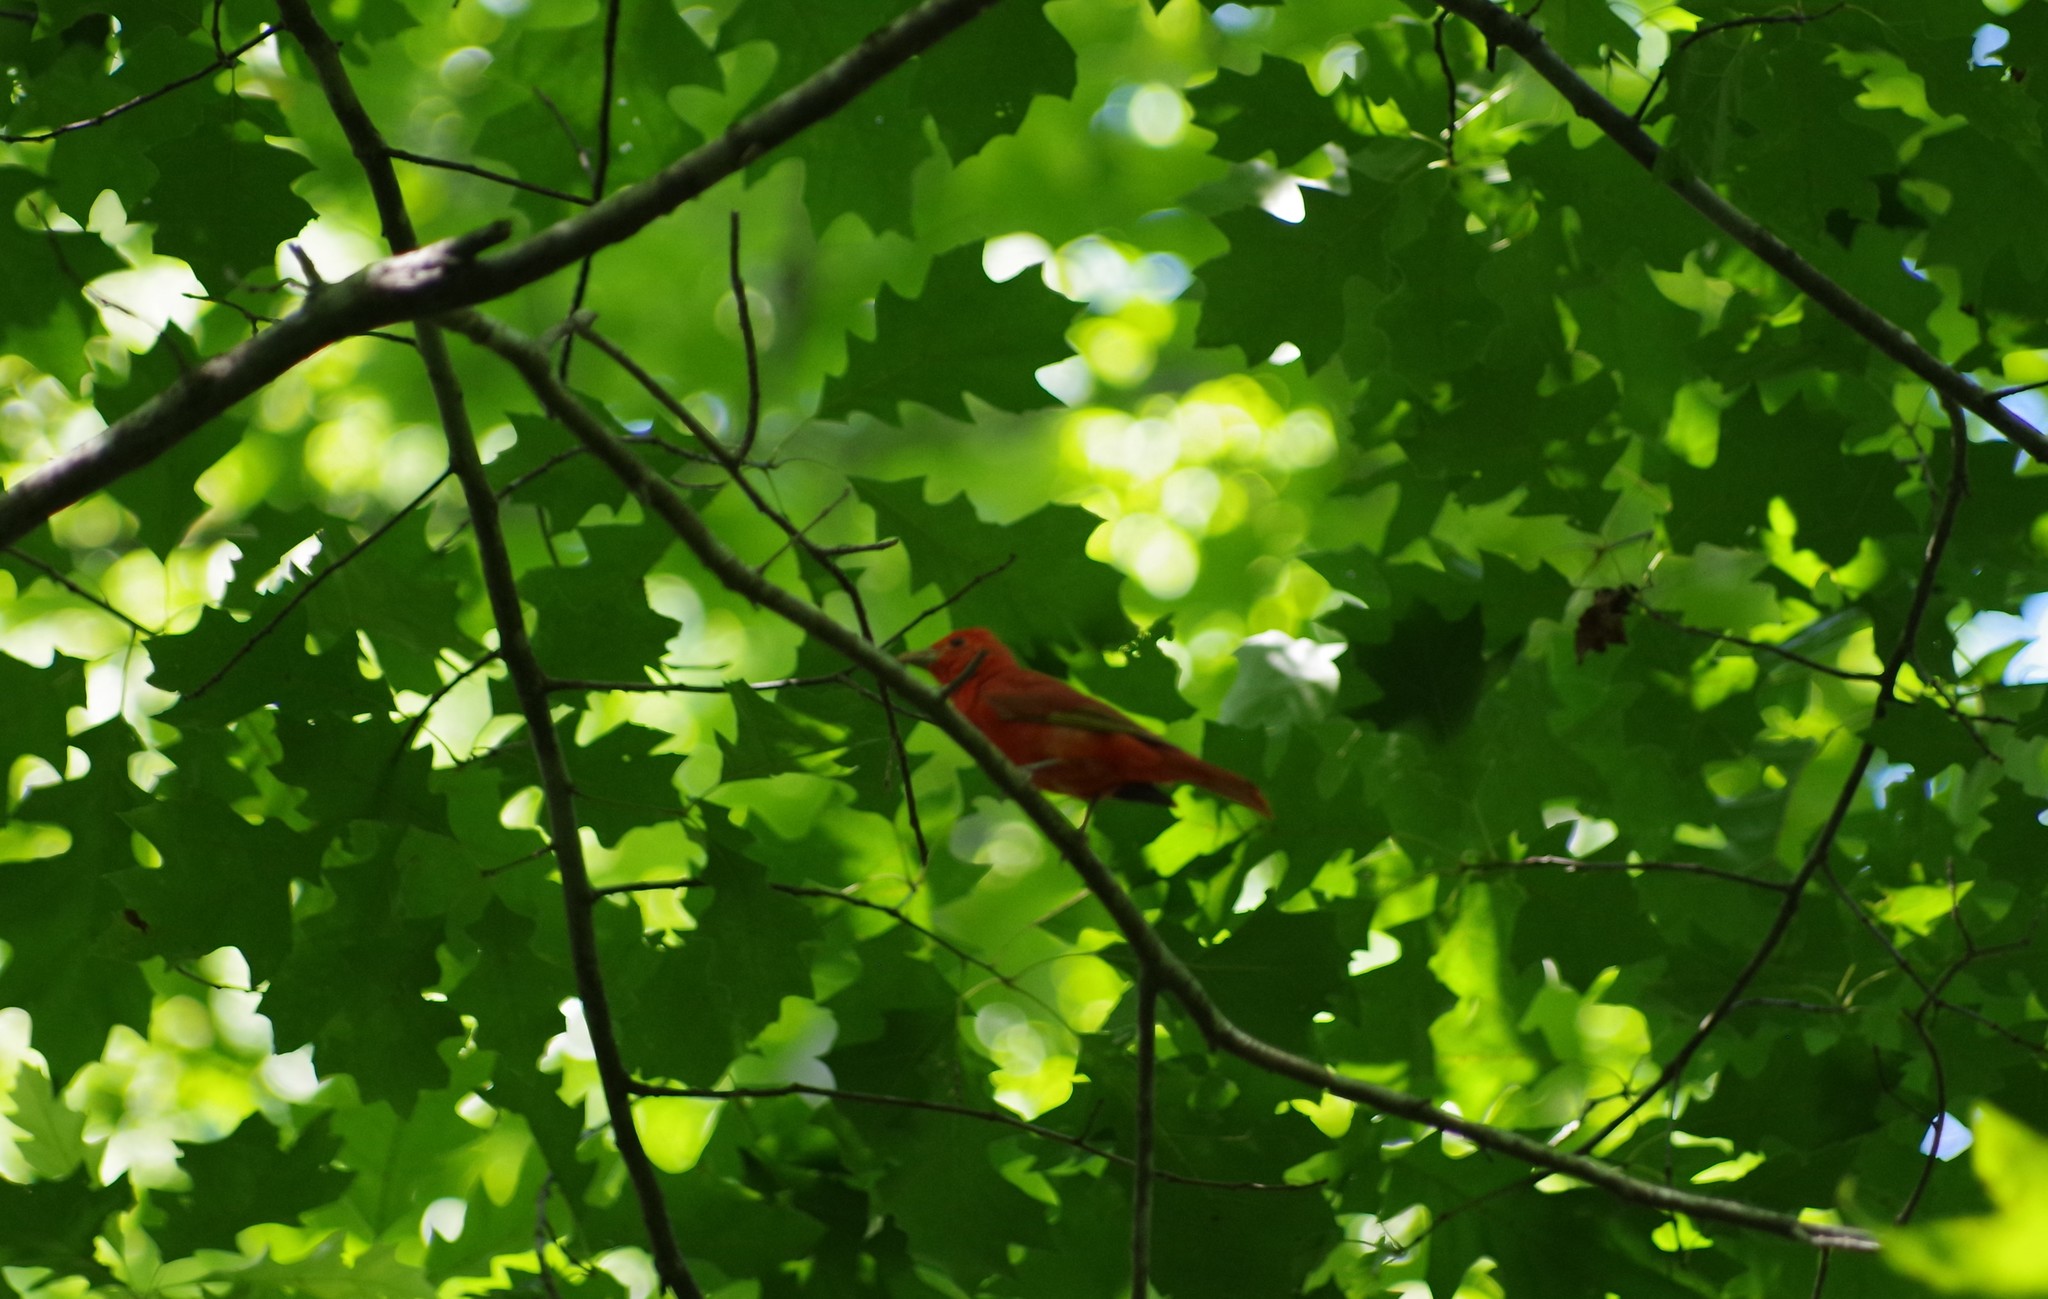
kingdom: Animalia
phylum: Chordata
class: Aves
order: Passeriformes
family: Cardinalidae
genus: Piranga
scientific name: Piranga rubra
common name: Summer tanager
